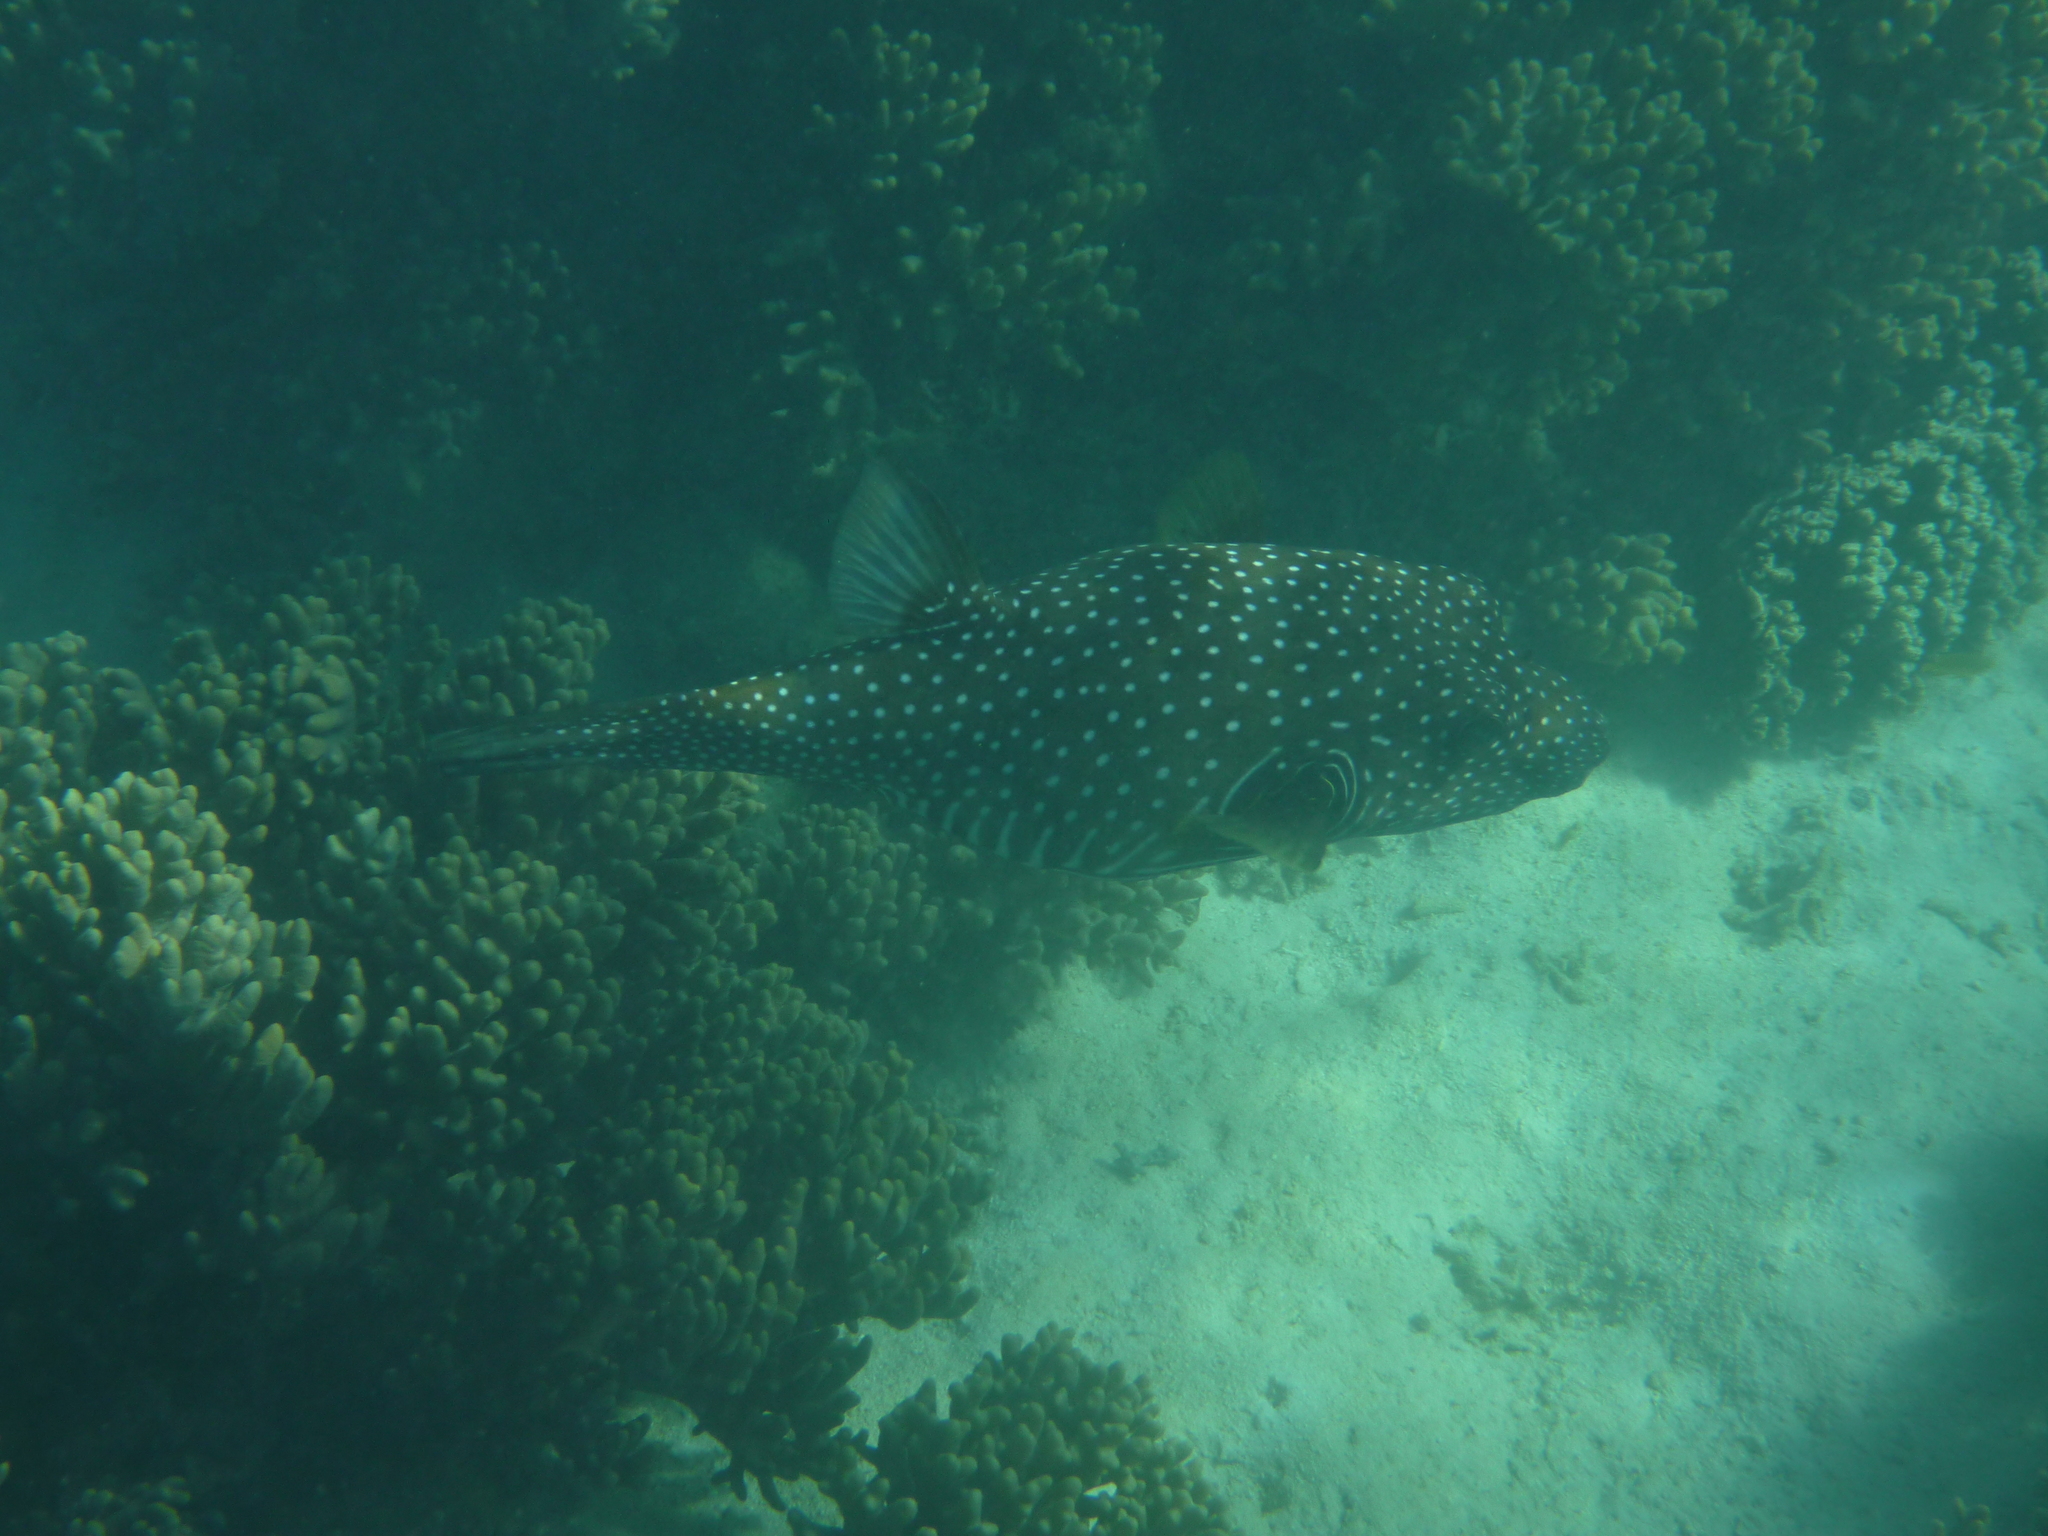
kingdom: Animalia
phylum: Chordata
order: Tetraodontiformes
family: Tetraodontidae
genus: Arothron
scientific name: Arothron hispidus
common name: Stripebelly puffer
